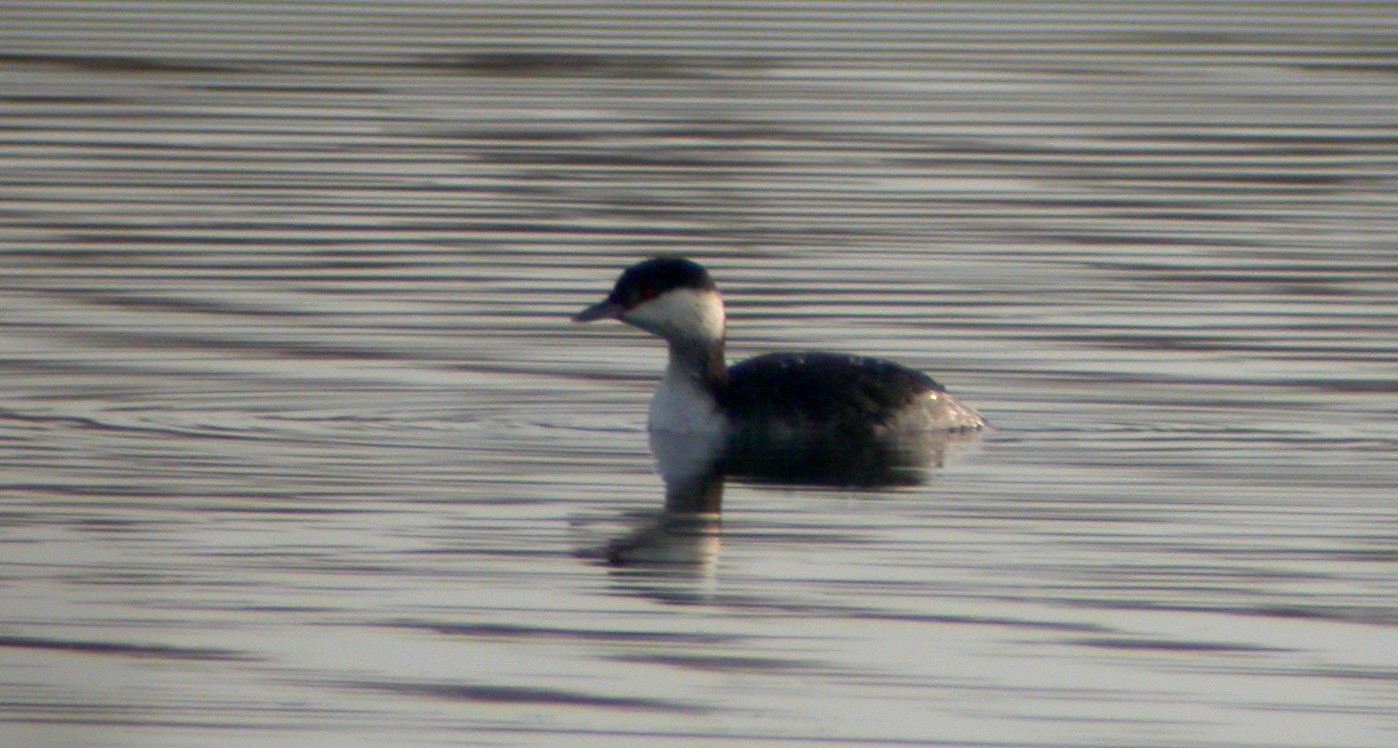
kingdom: Animalia
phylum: Chordata
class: Aves
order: Podicipediformes
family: Podicipedidae
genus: Podiceps
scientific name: Podiceps auritus
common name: Horned grebe
